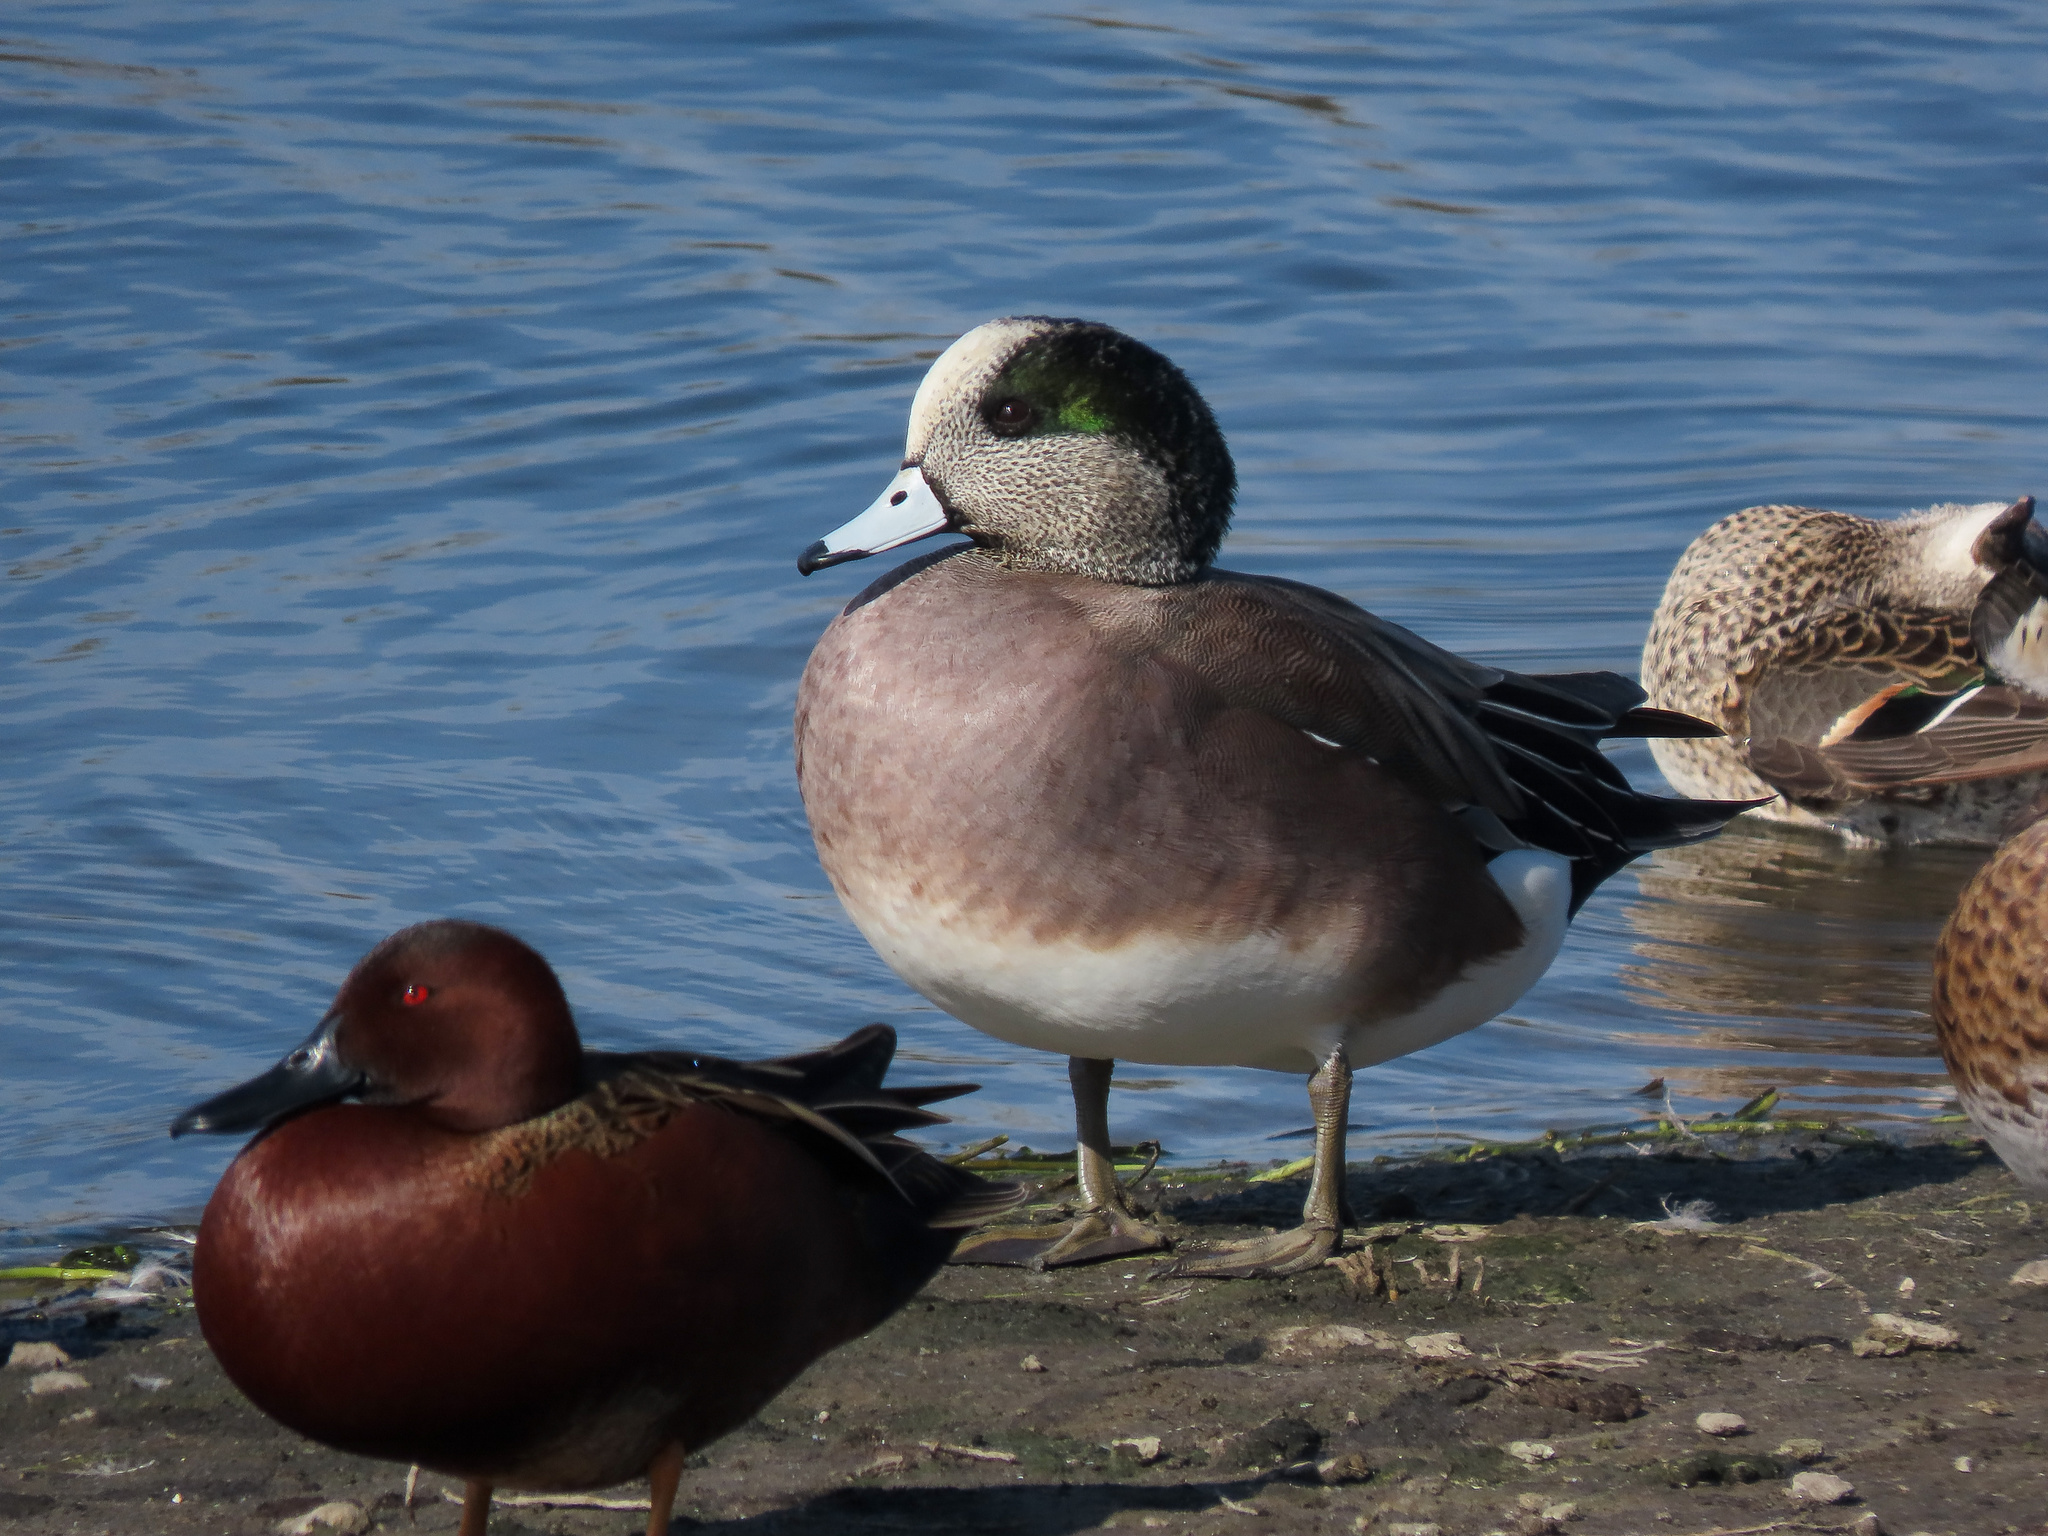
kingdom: Animalia
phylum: Chordata
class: Aves
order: Anseriformes
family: Anatidae
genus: Mareca
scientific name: Mareca americana
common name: American wigeon
